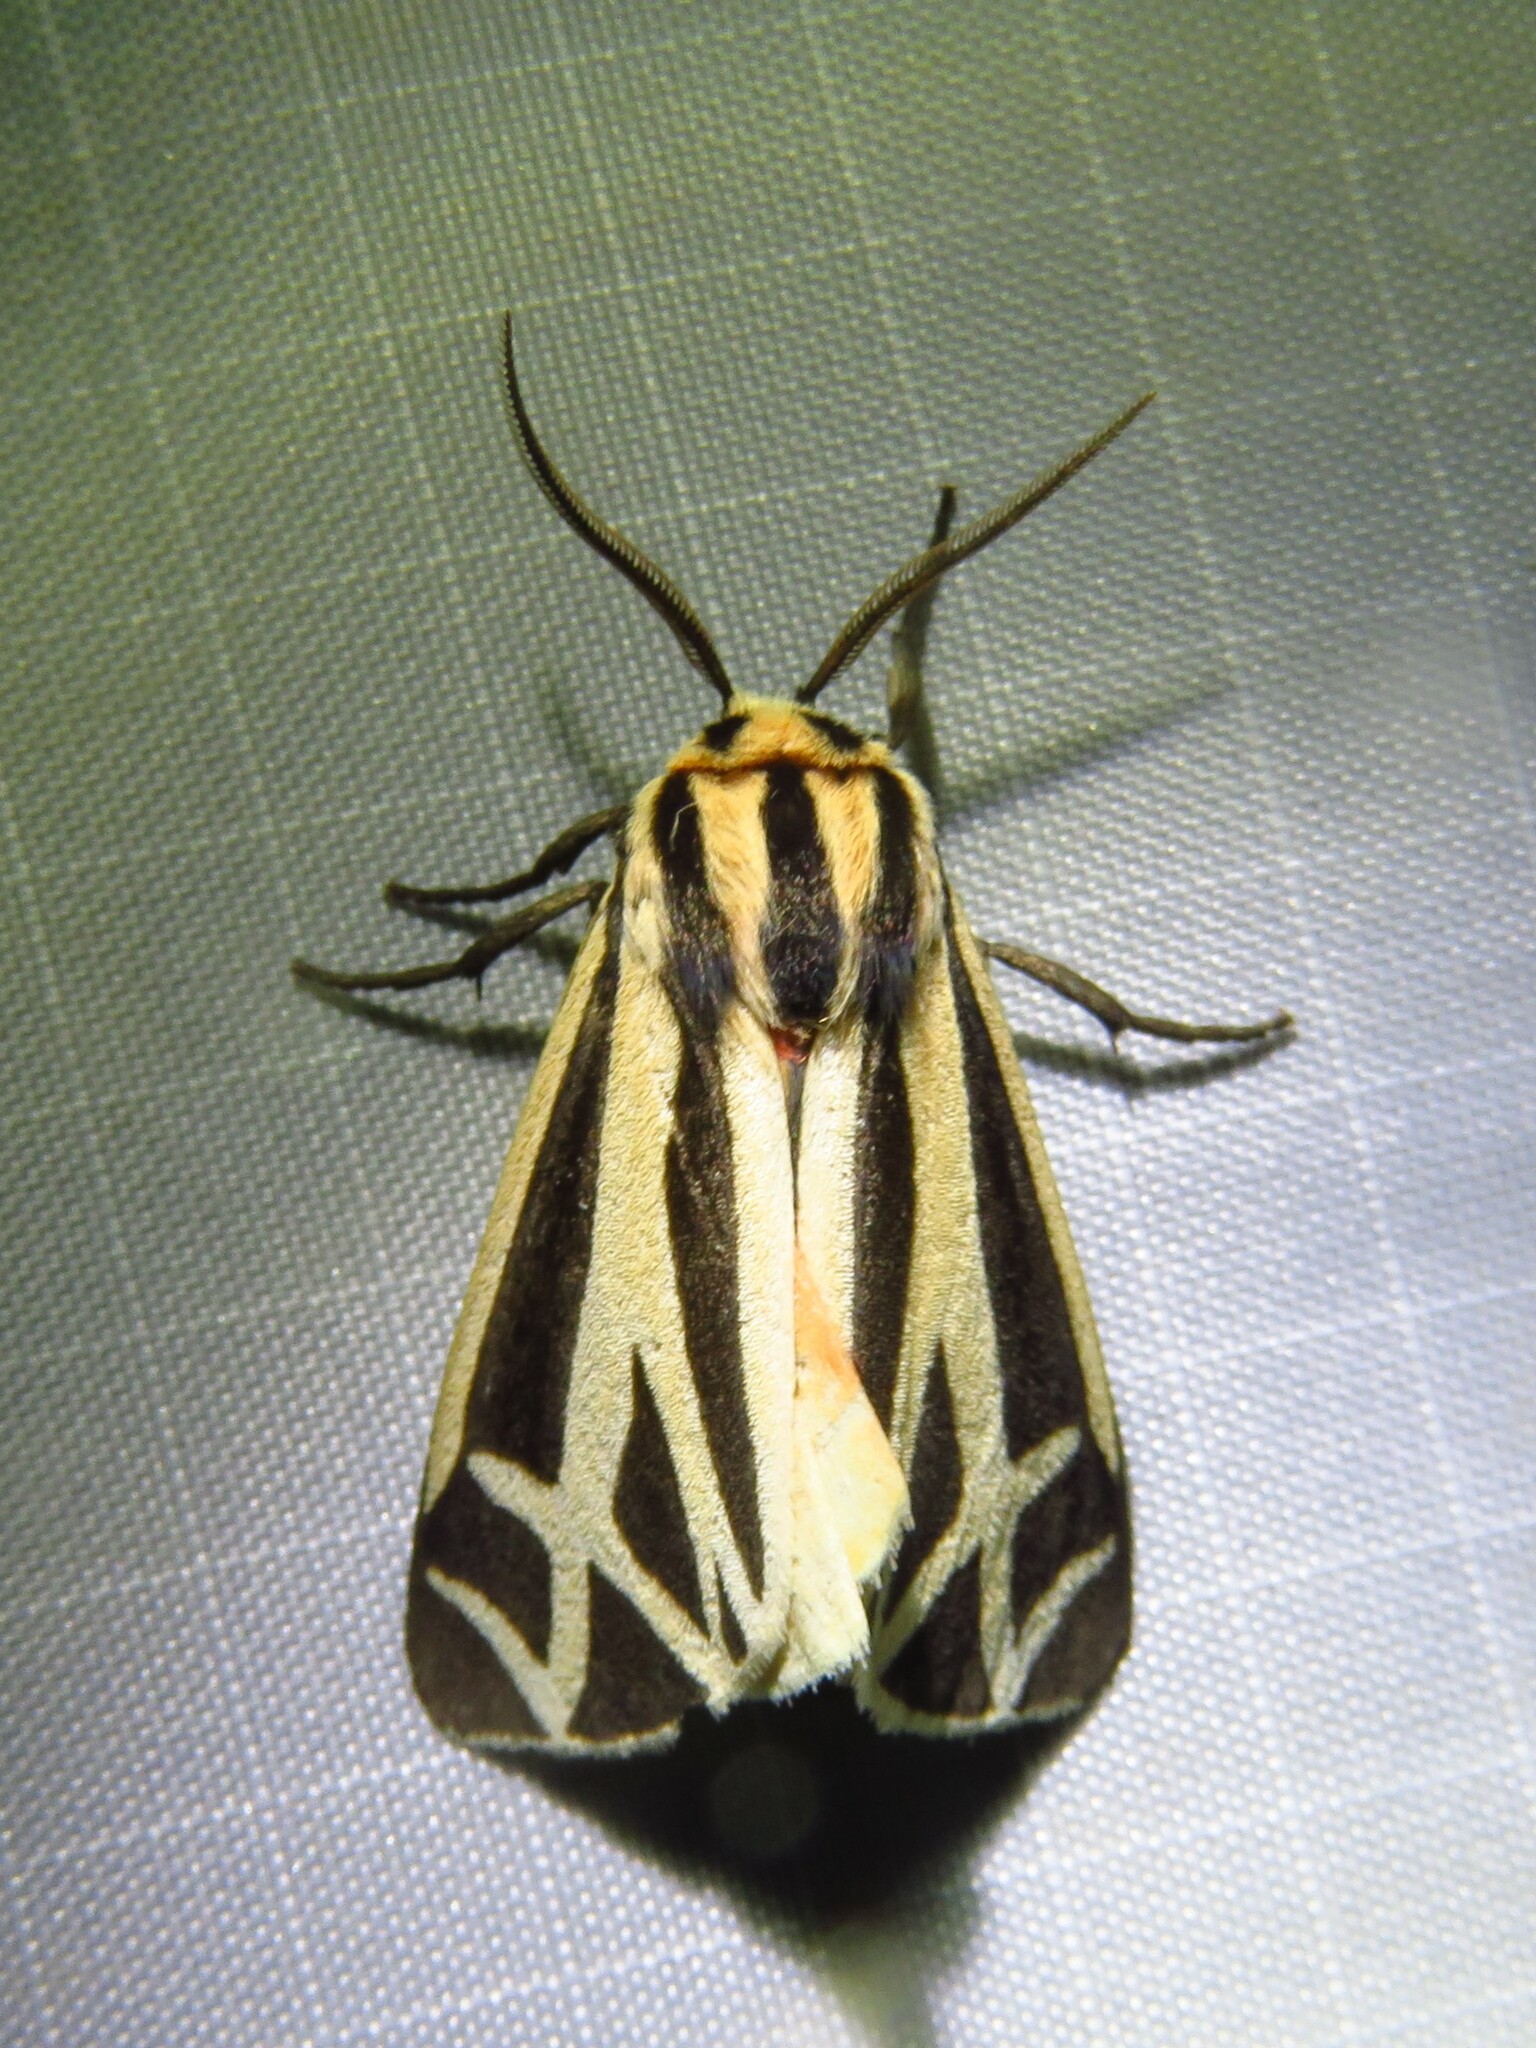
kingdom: Animalia
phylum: Arthropoda
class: Insecta
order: Lepidoptera
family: Erebidae
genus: Apantesis
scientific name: Apantesis phalerata
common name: Harnessed tiger moth
